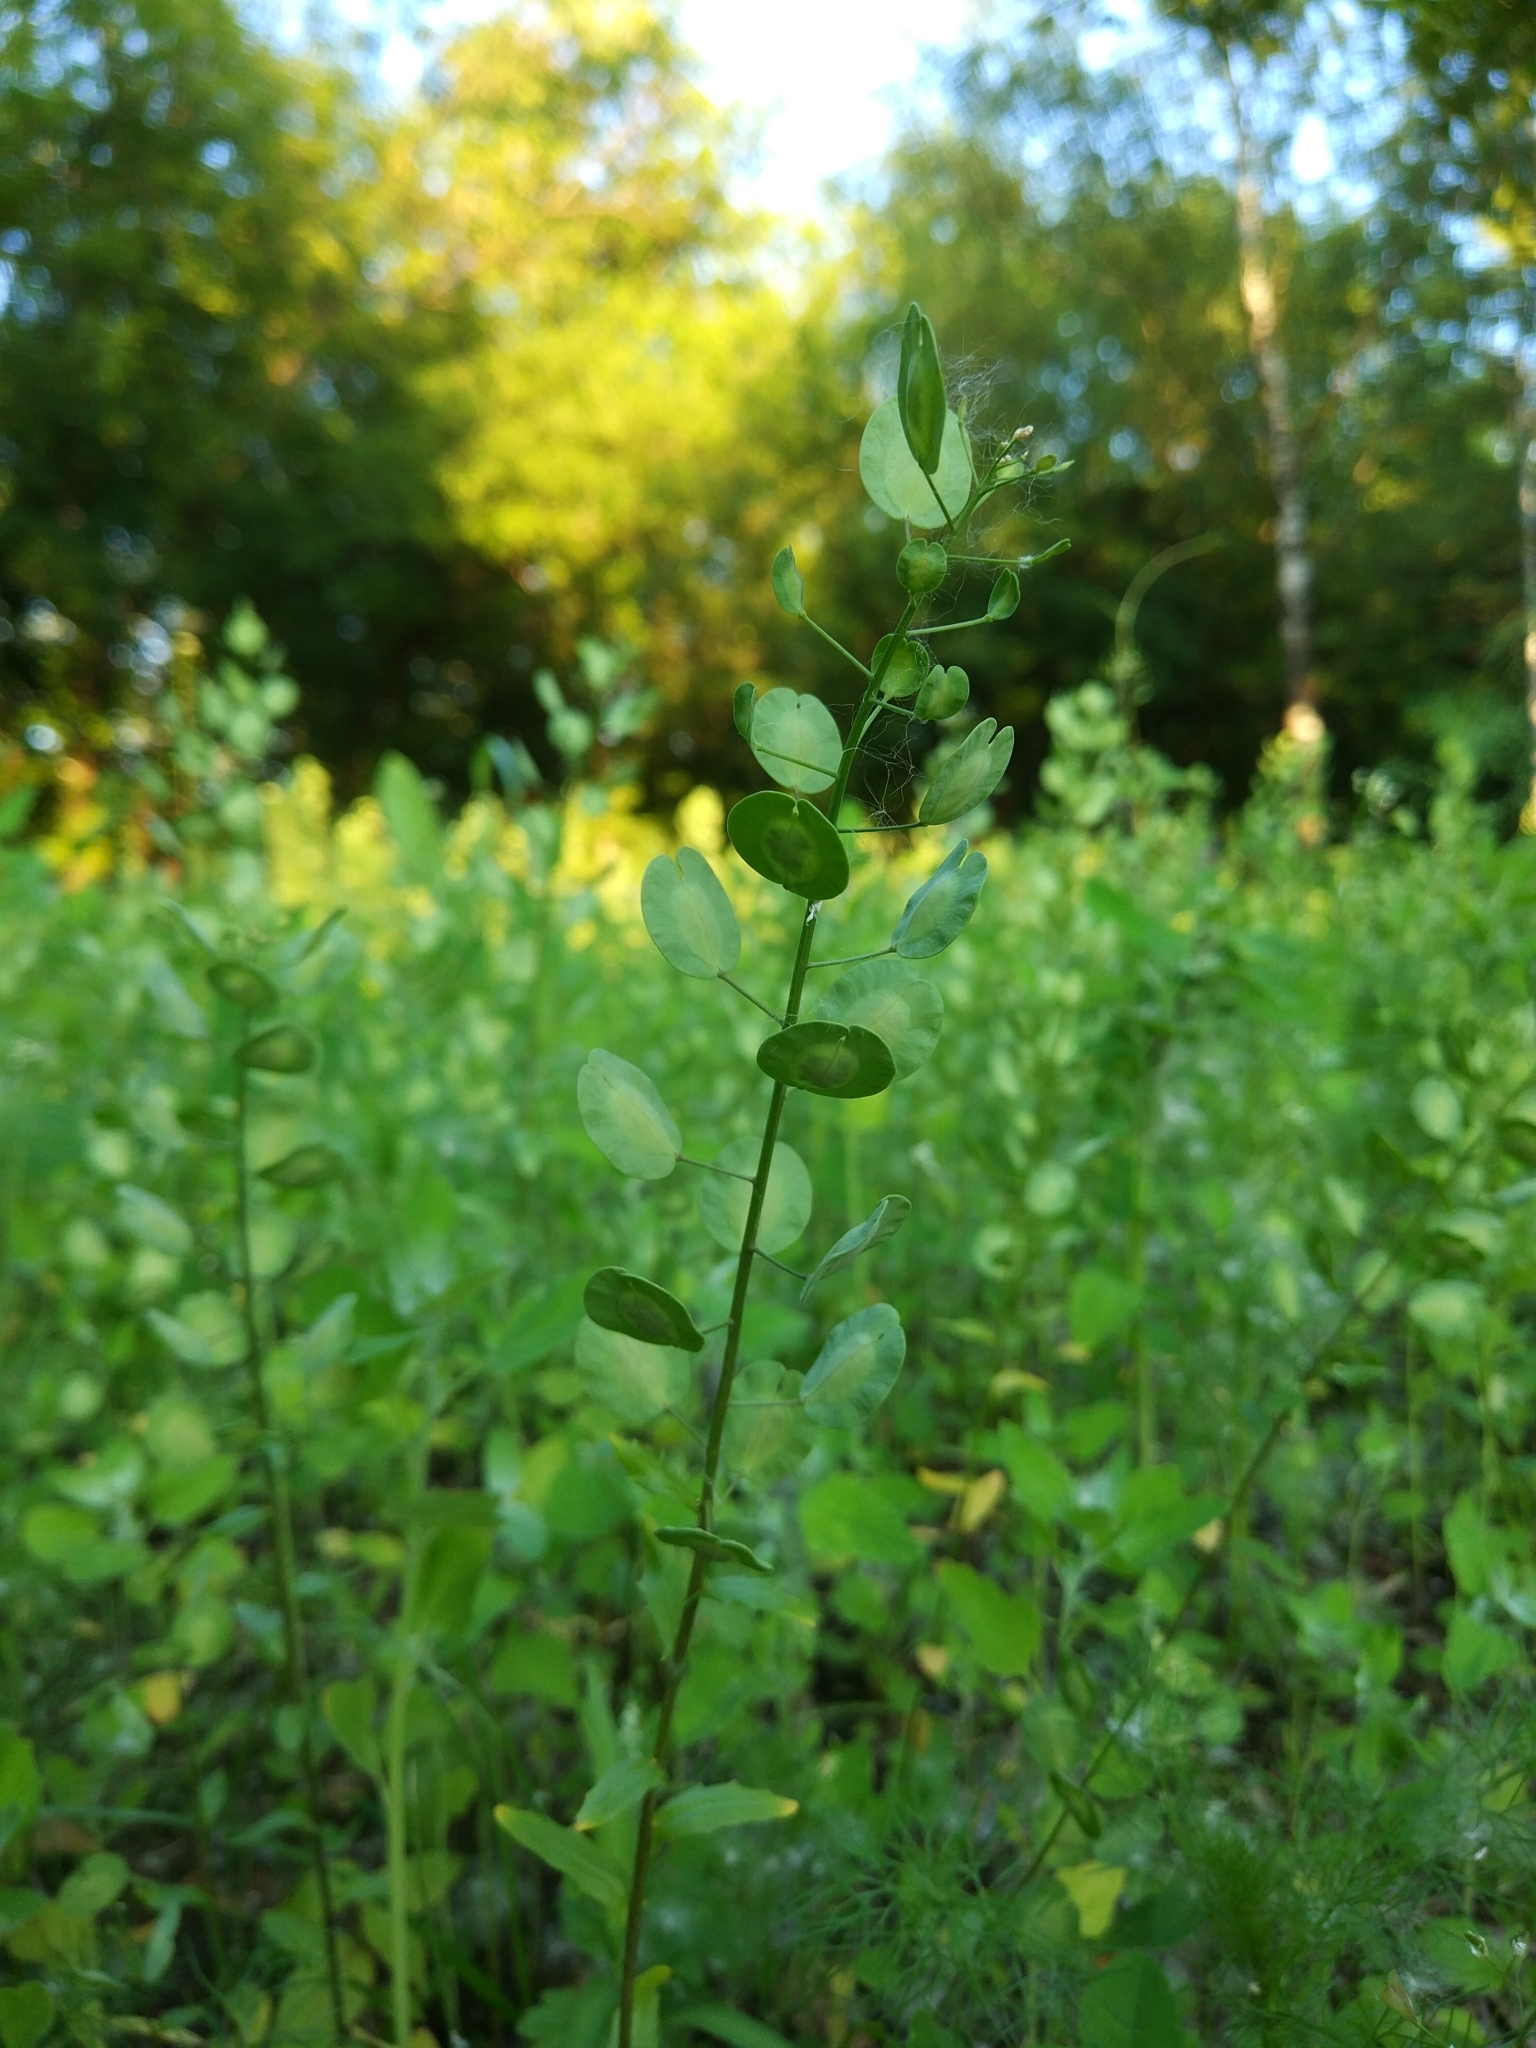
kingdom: Plantae
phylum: Tracheophyta
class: Magnoliopsida
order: Brassicales
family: Brassicaceae
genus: Thlaspi
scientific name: Thlaspi arvense
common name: Field pennycress
